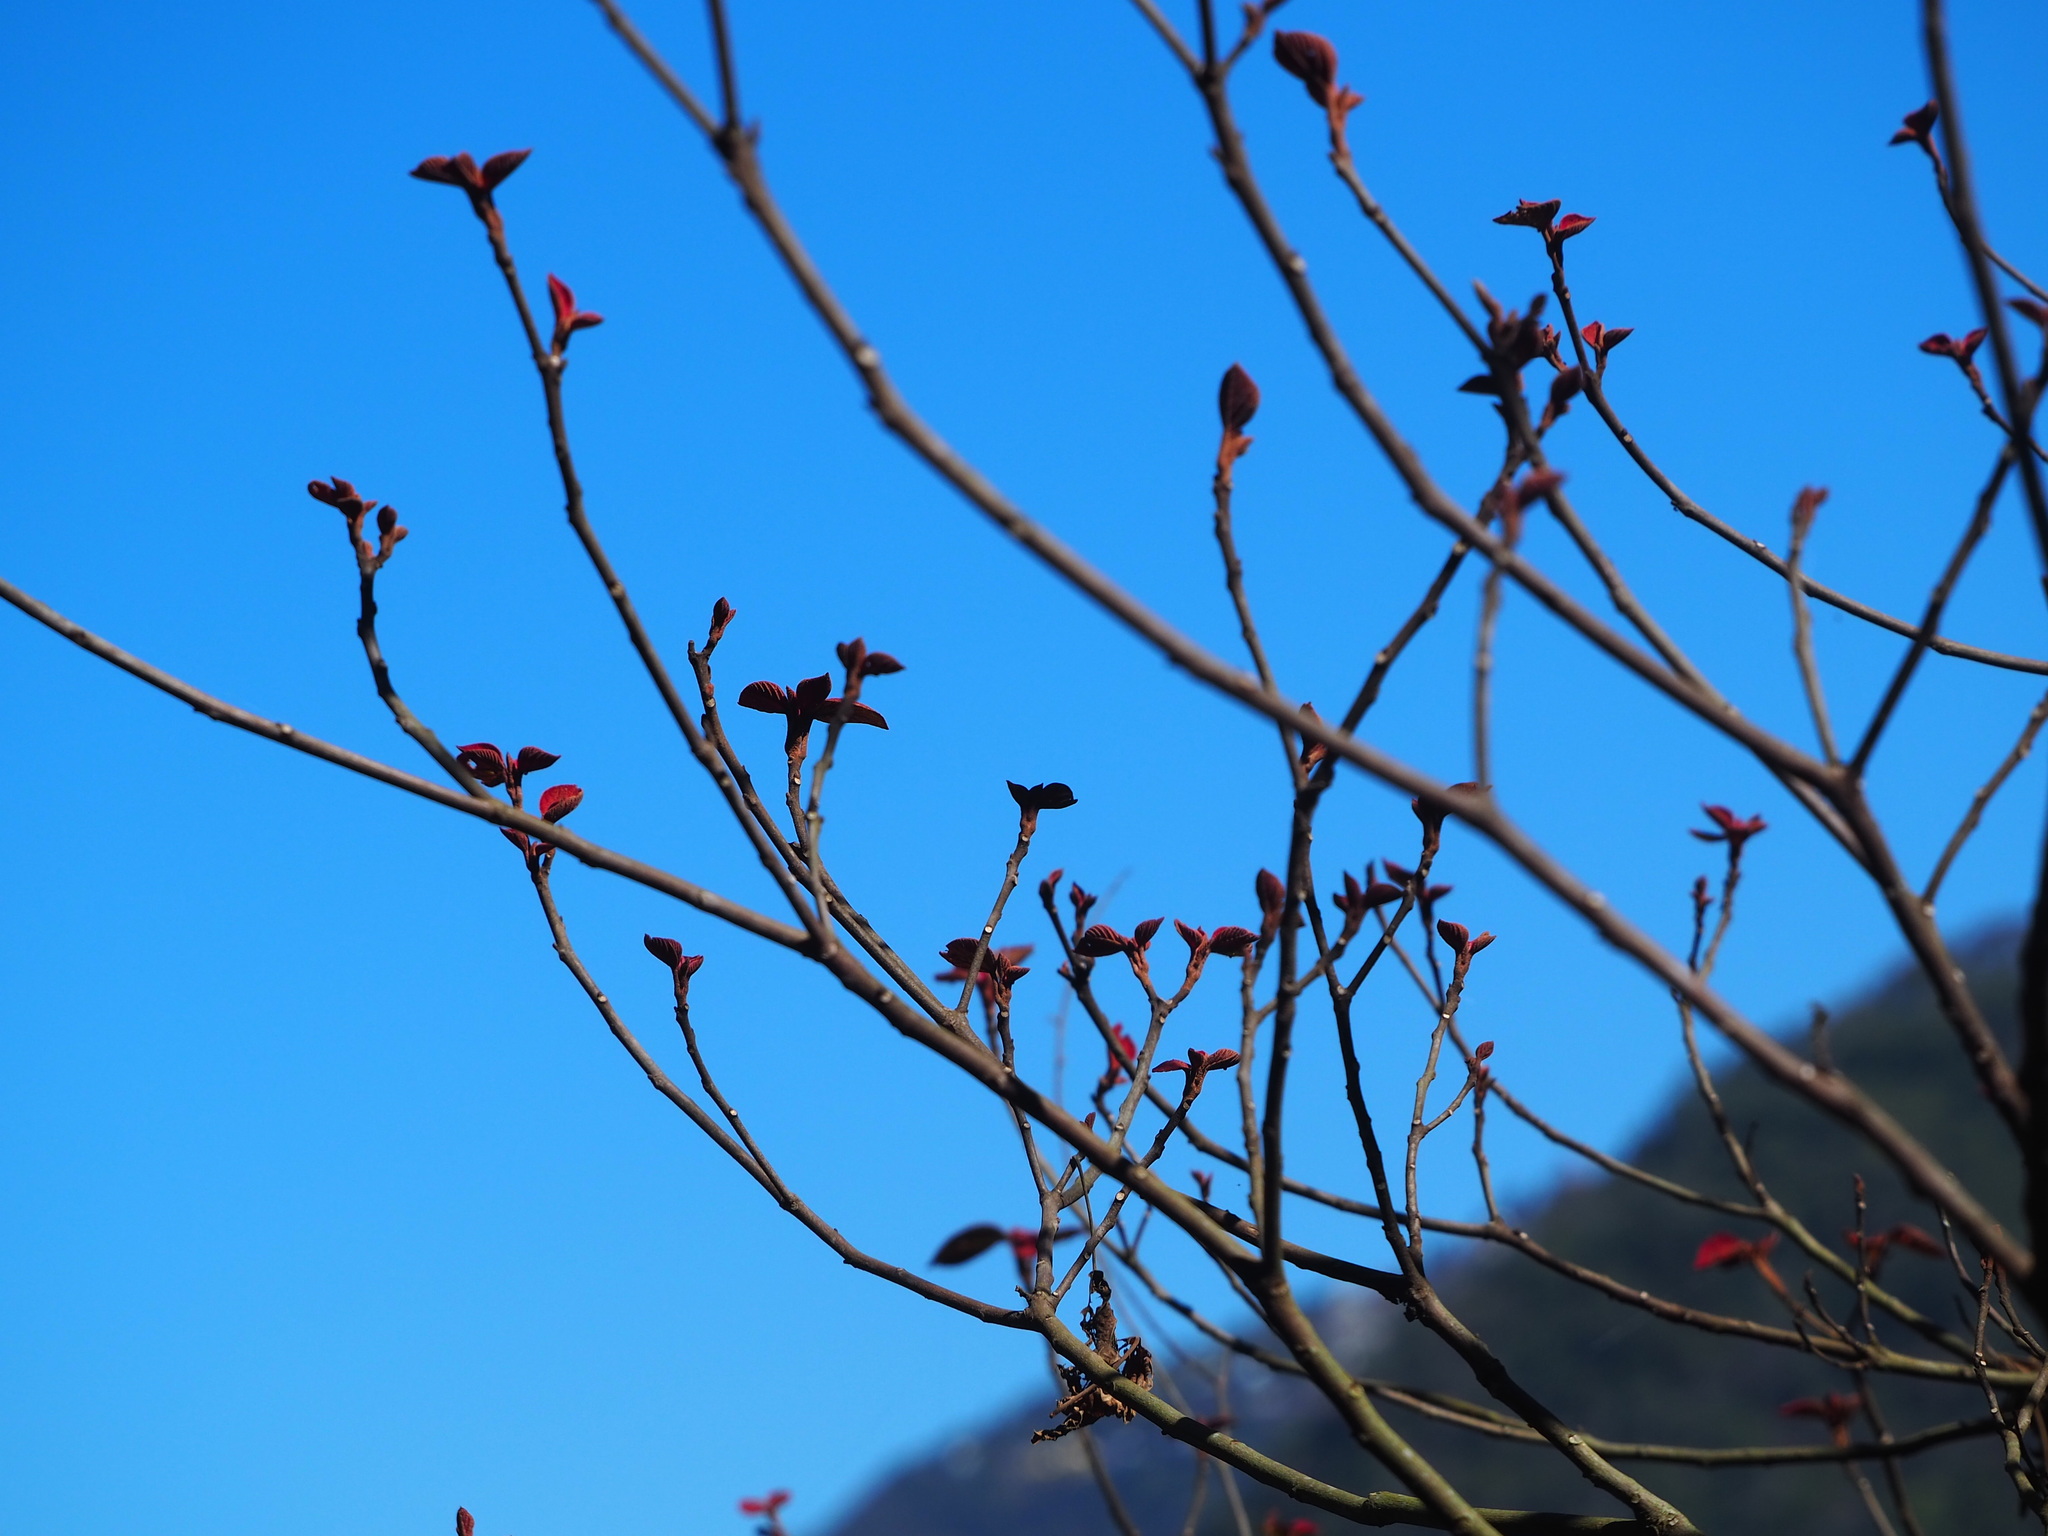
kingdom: Plantae
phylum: Tracheophyta
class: Magnoliopsida
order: Rosales
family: Moraceae
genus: Ficus
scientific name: Ficus erecta
